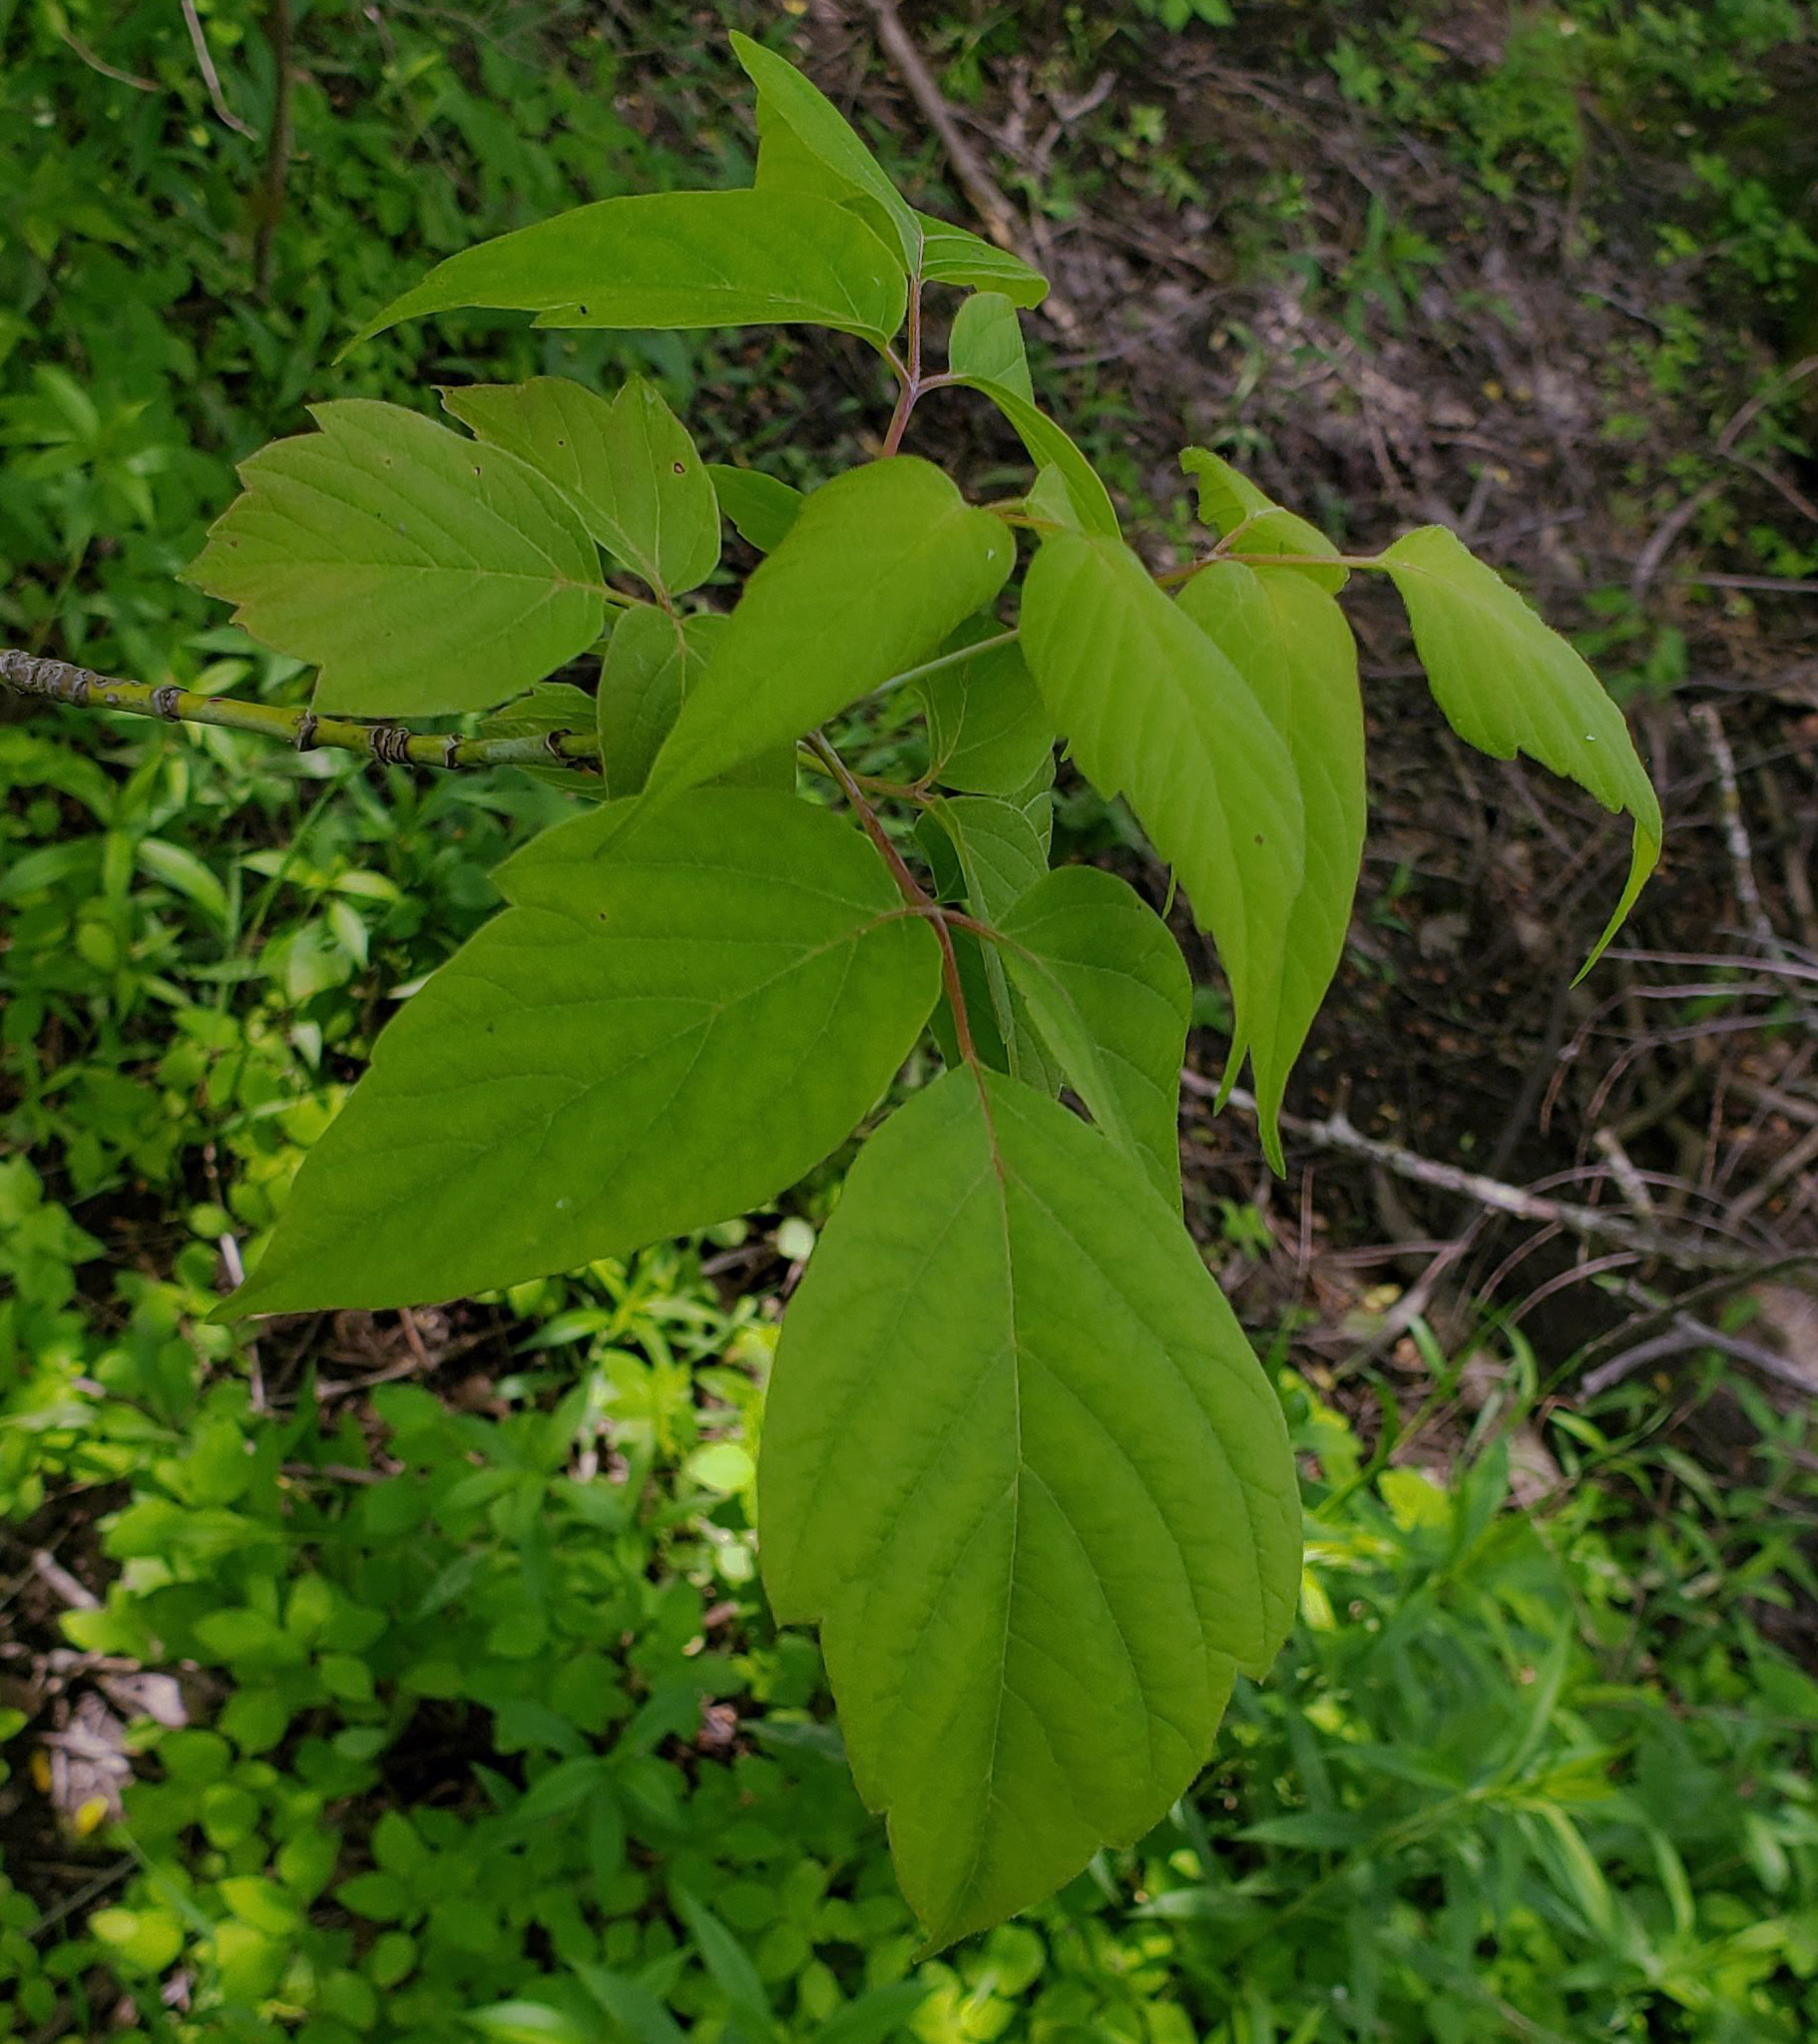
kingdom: Plantae
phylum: Tracheophyta
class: Magnoliopsida
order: Sapindales
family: Sapindaceae
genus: Acer
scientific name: Acer negundo
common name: Ashleaf maple
